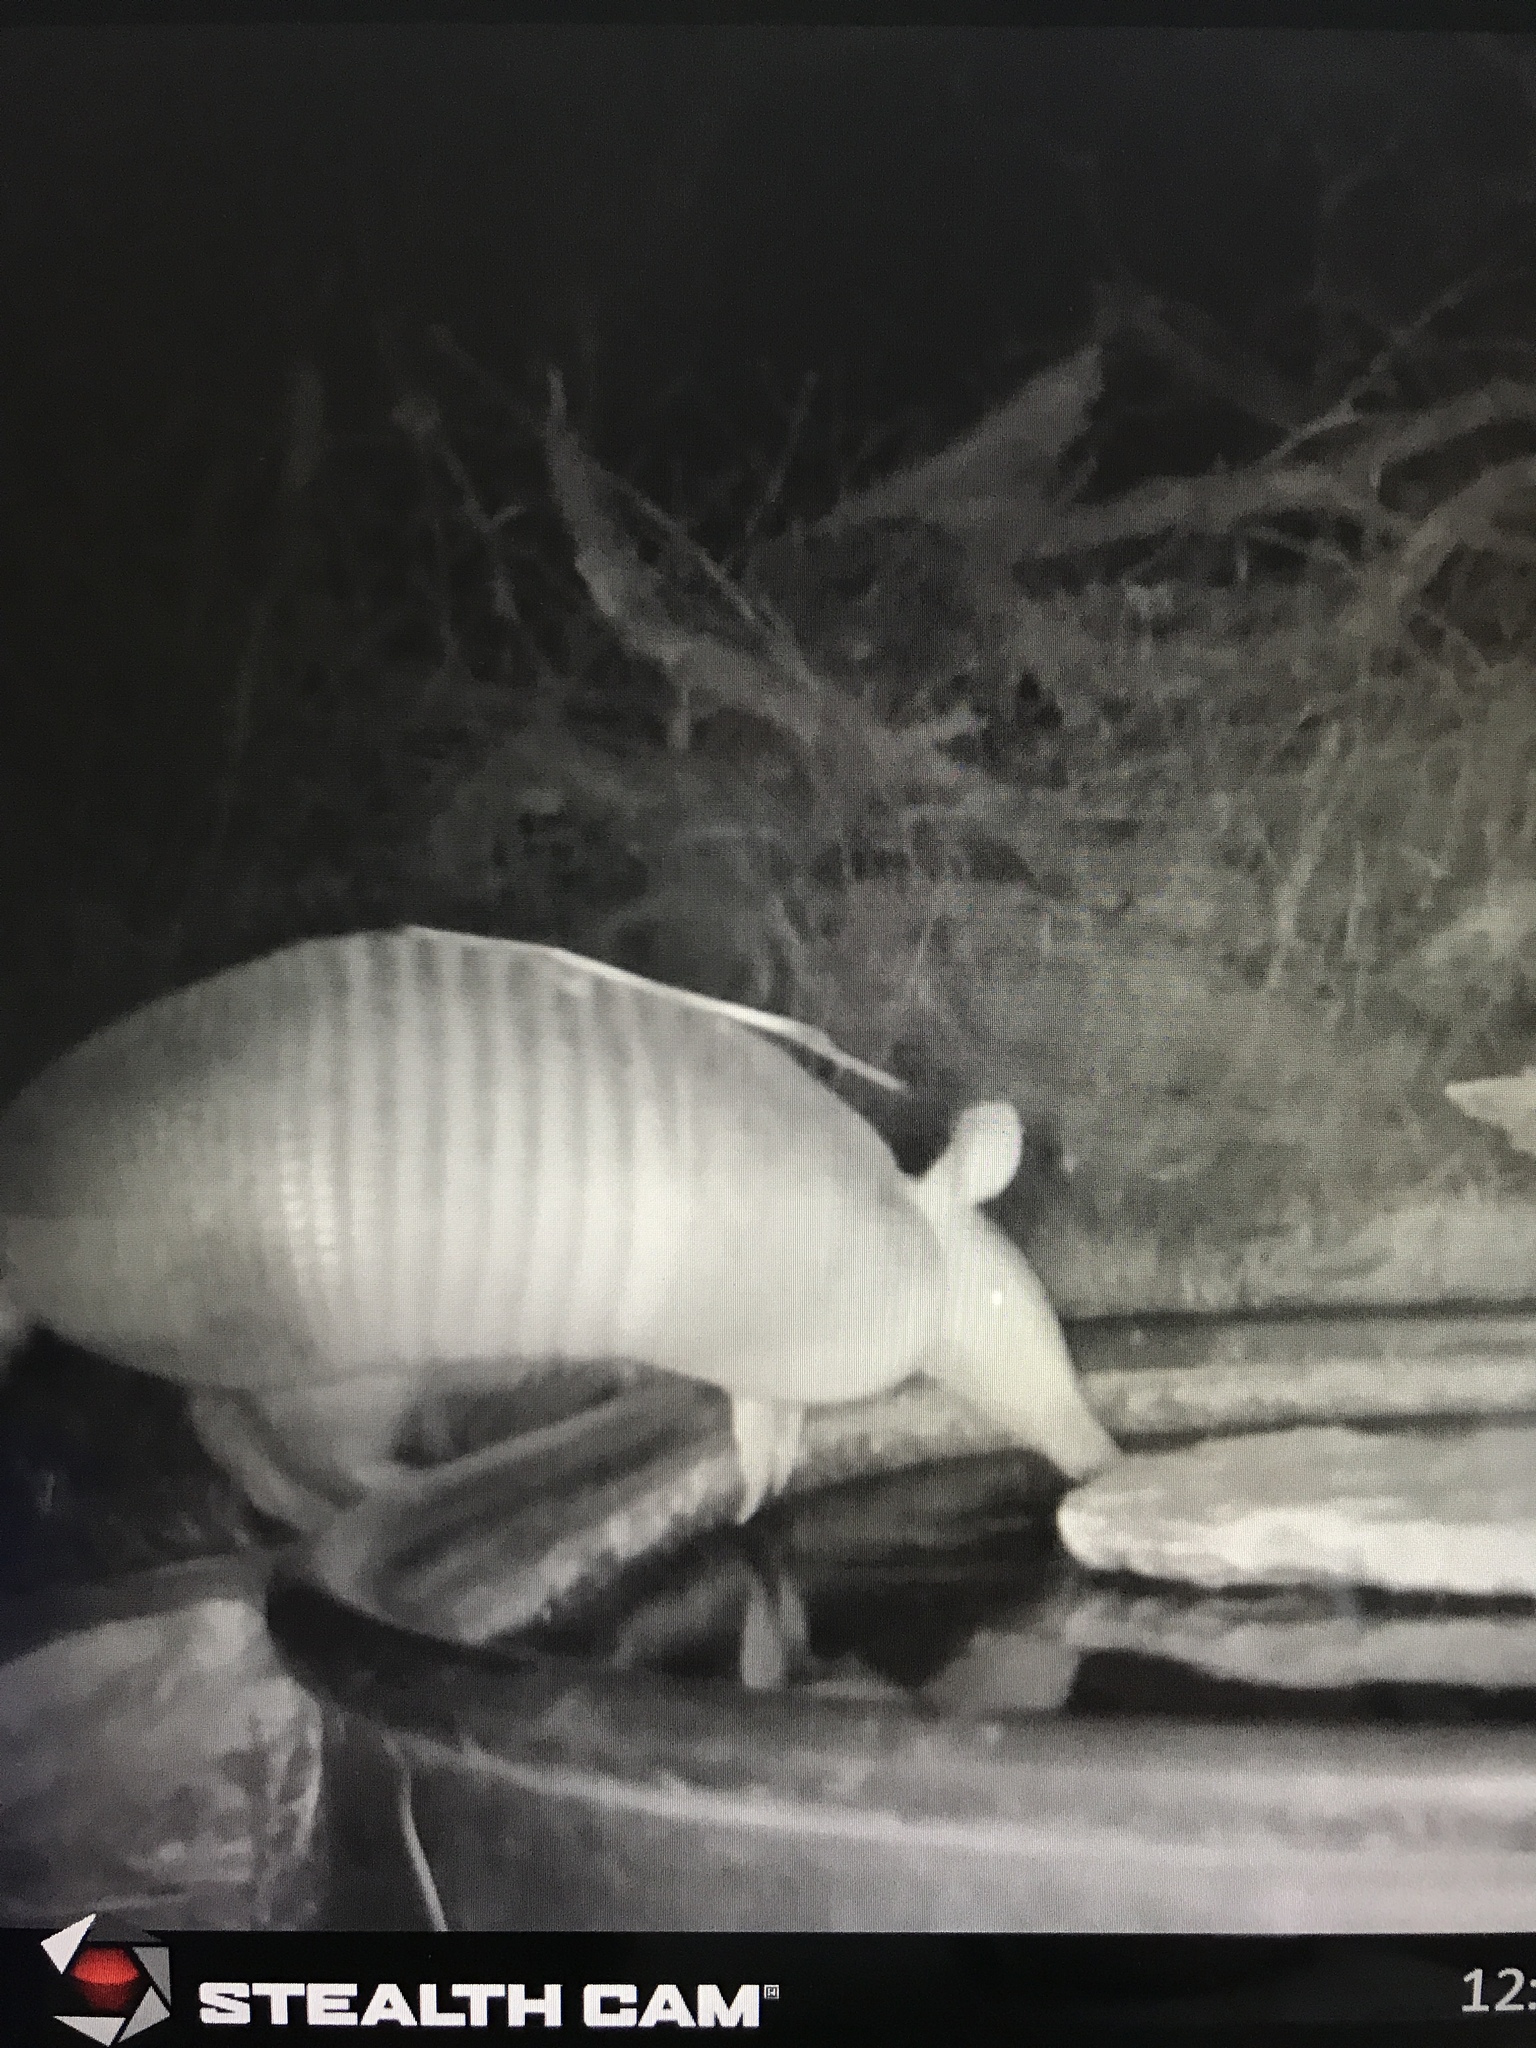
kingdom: Animalia
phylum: Chordata
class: Mammalia
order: Cingulata
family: Dasypodidae
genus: Dasypus
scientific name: Dasypus novemcinctus
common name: Nine-banded armadillo
